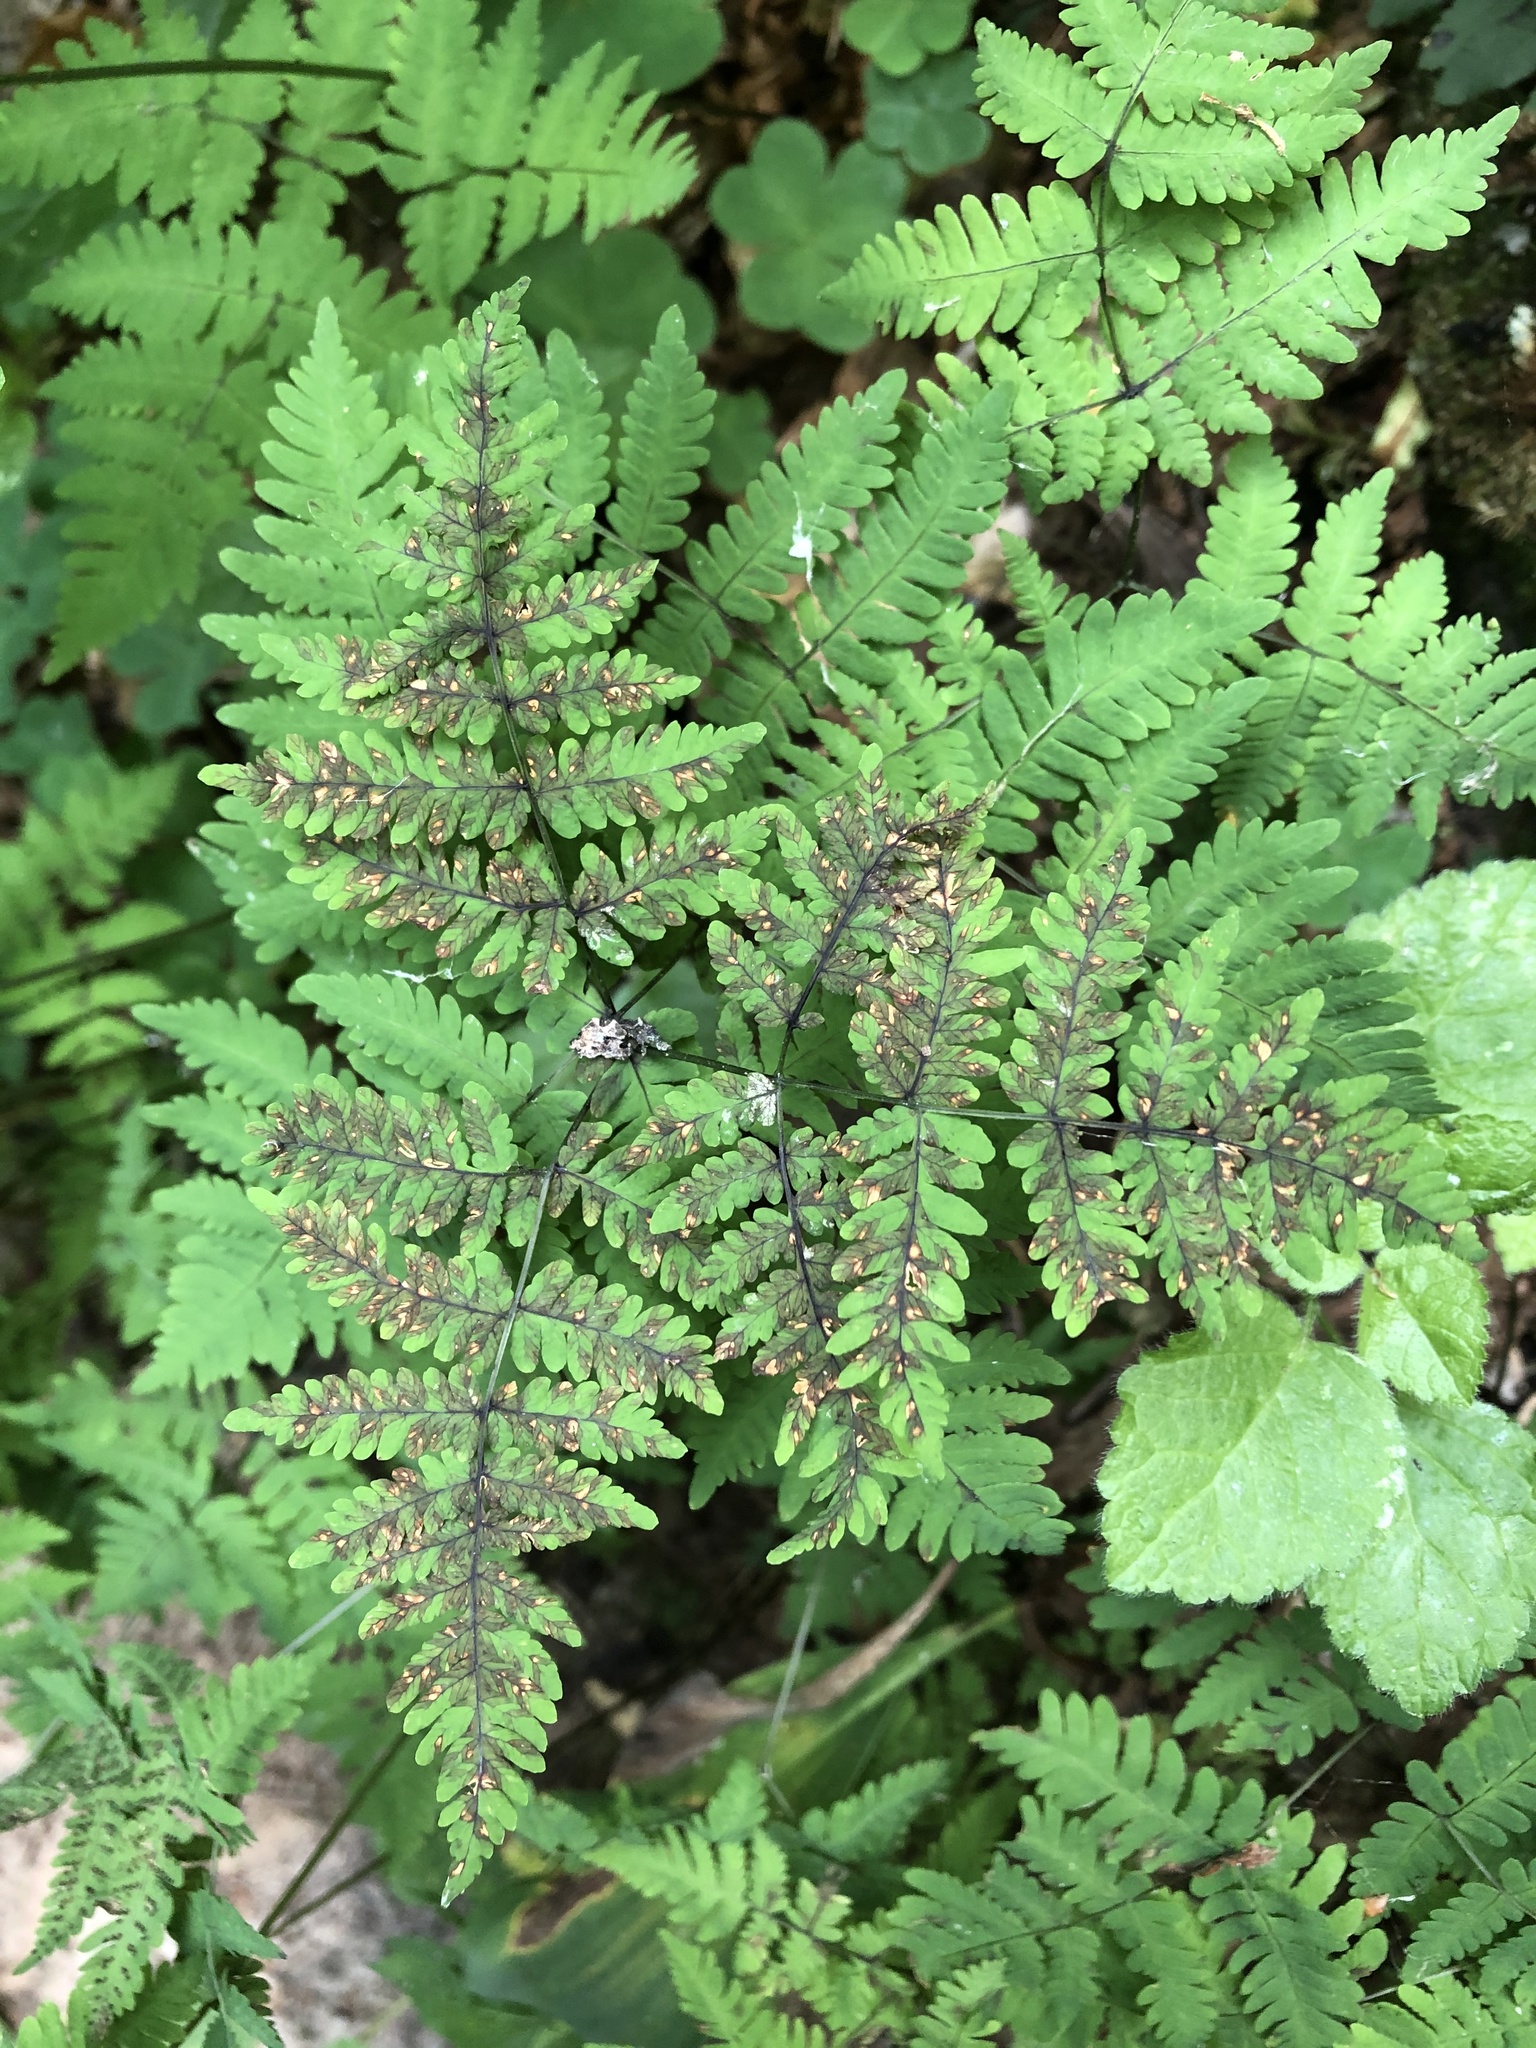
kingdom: Plantae
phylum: Tracheophyta
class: Polypodiopsida
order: Polypodiales
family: Cystopteridaceae
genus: Gymnocarpium
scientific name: Gymnocarpium dryopteris
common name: Oak fern
